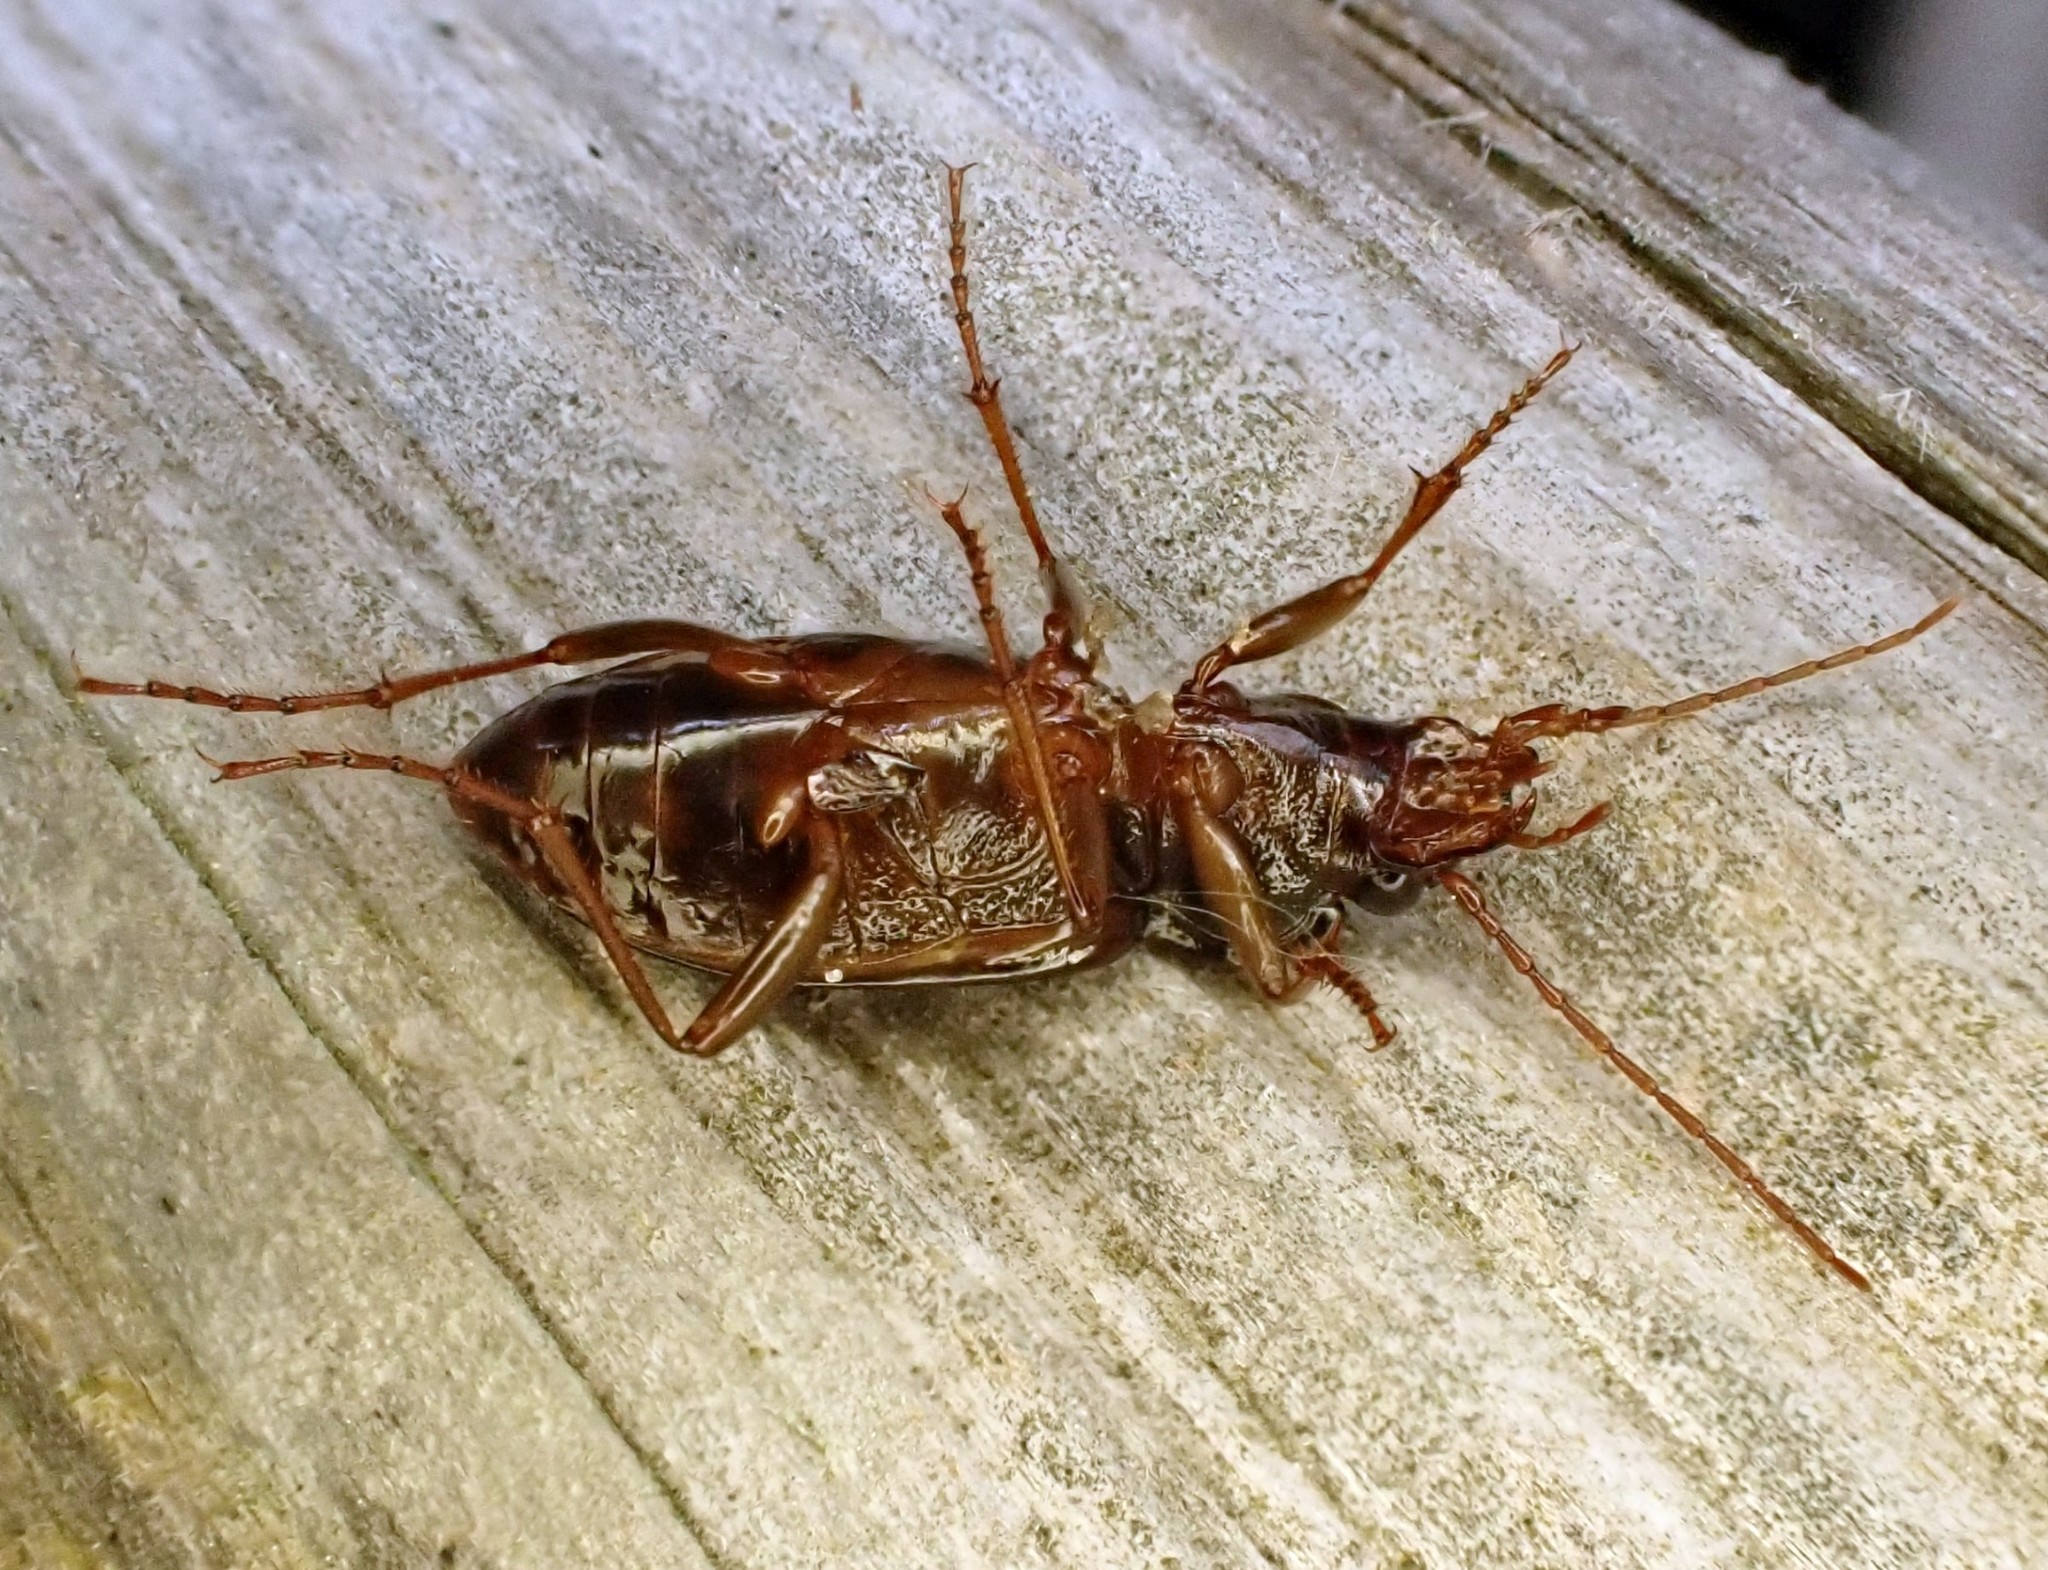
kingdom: Animalia
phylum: Arthropoda
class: Insecta
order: Coleoptera
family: Carabidae
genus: Nebria
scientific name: Nebria brevicollis
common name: Short-necked gazelle beetle
